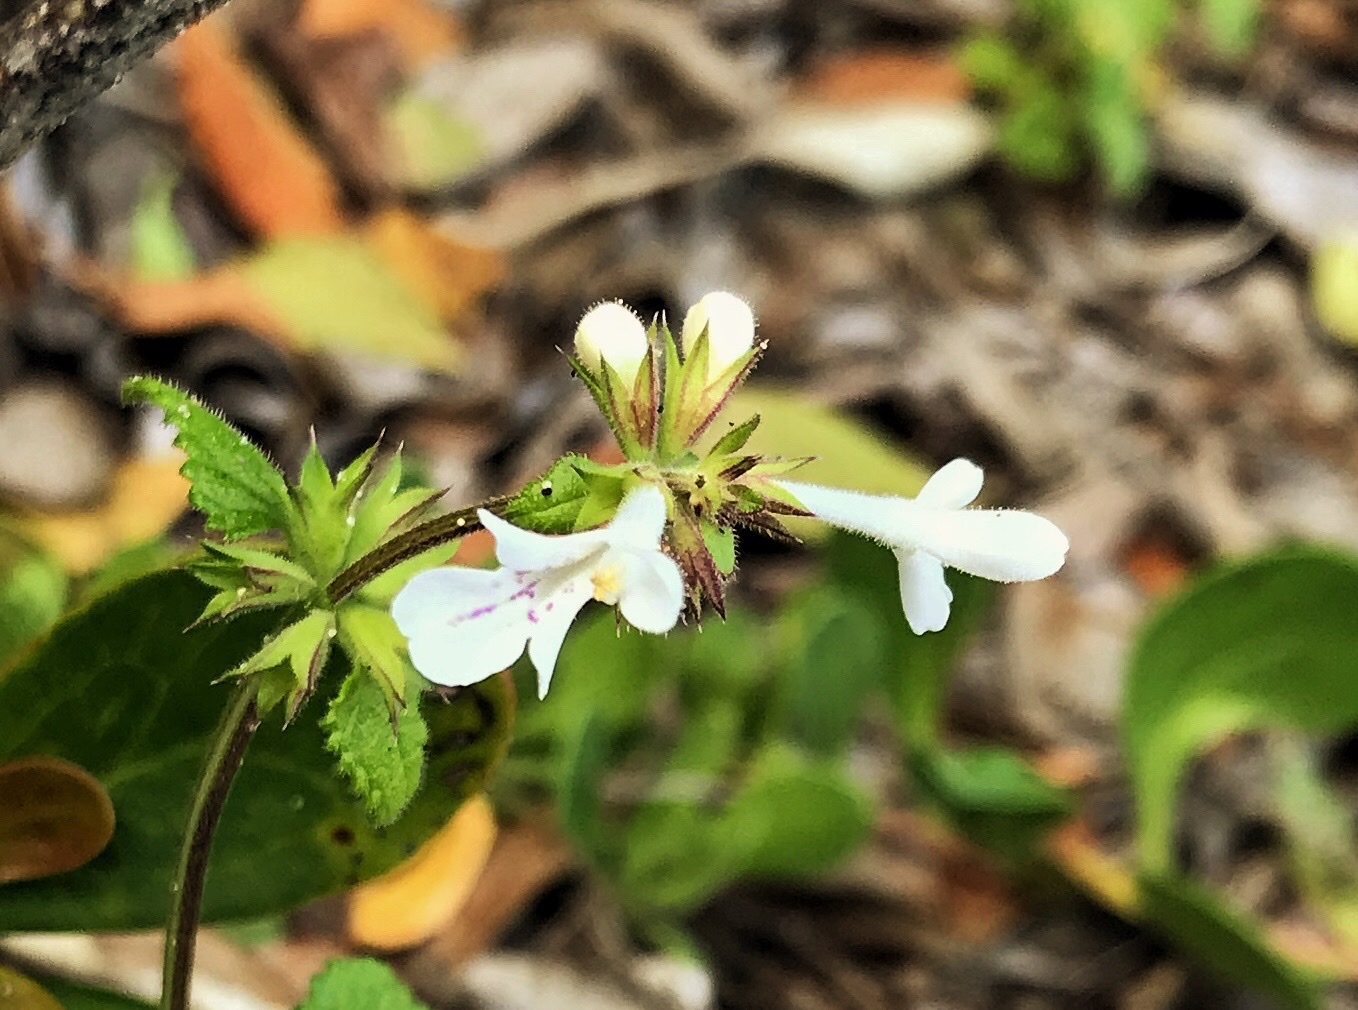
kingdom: Plantae
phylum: Tracheophyta
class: Magnoliopsida
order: Lamiales
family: Lamiaceae
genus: Stachys
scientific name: Stachys aethiopica
